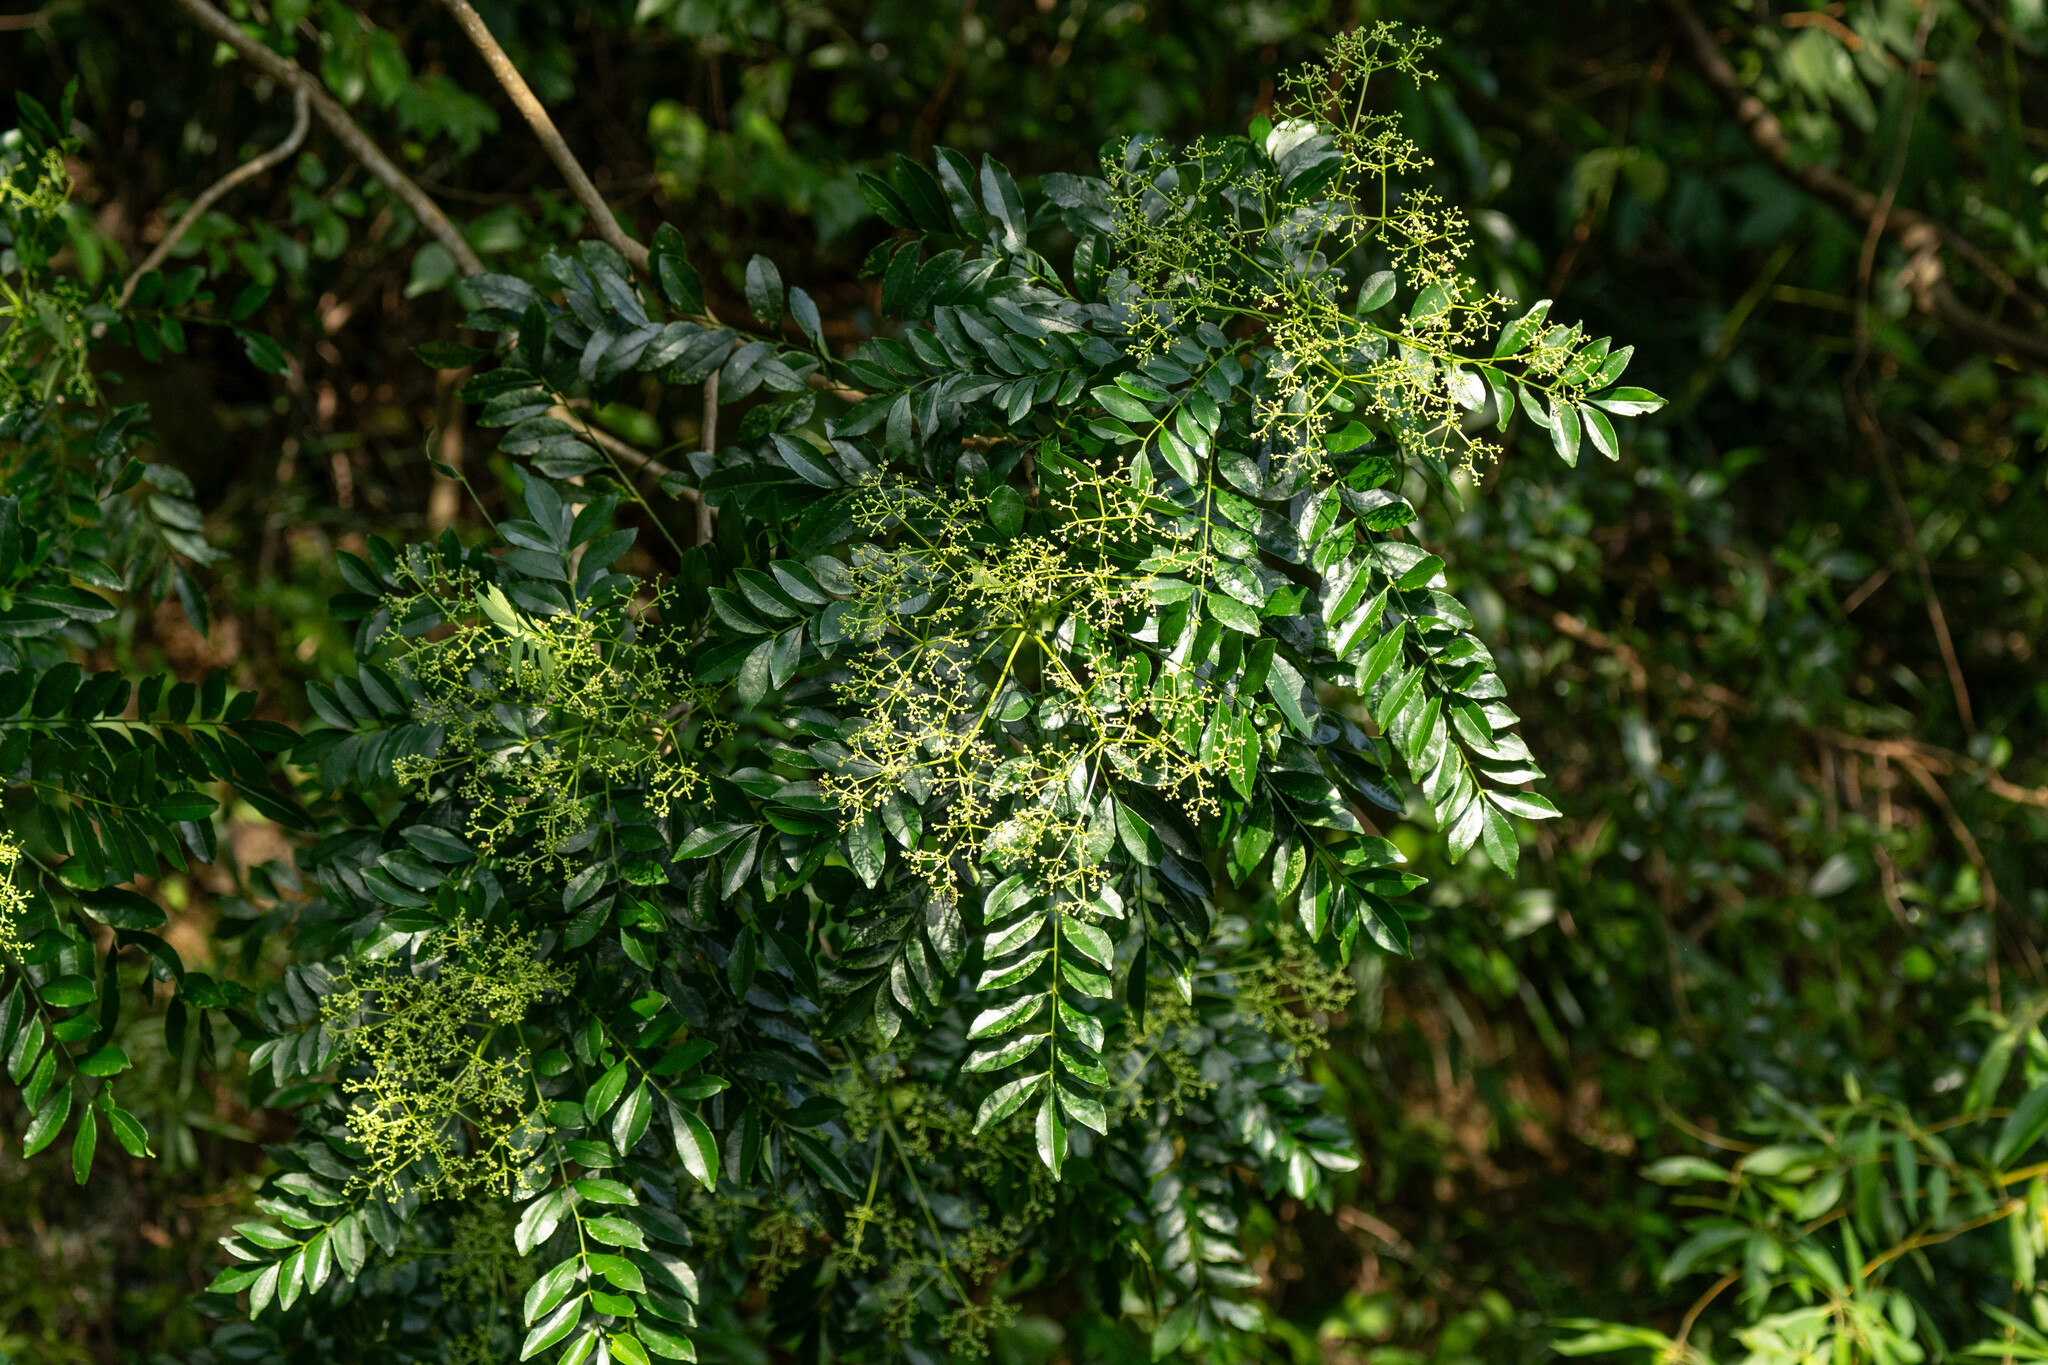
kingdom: Plantae
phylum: Tracheophyta
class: Magnoliopsida
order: Sapindales
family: Rutaceae
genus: Zanthoxylum
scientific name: Zanthoxylum avicennae
